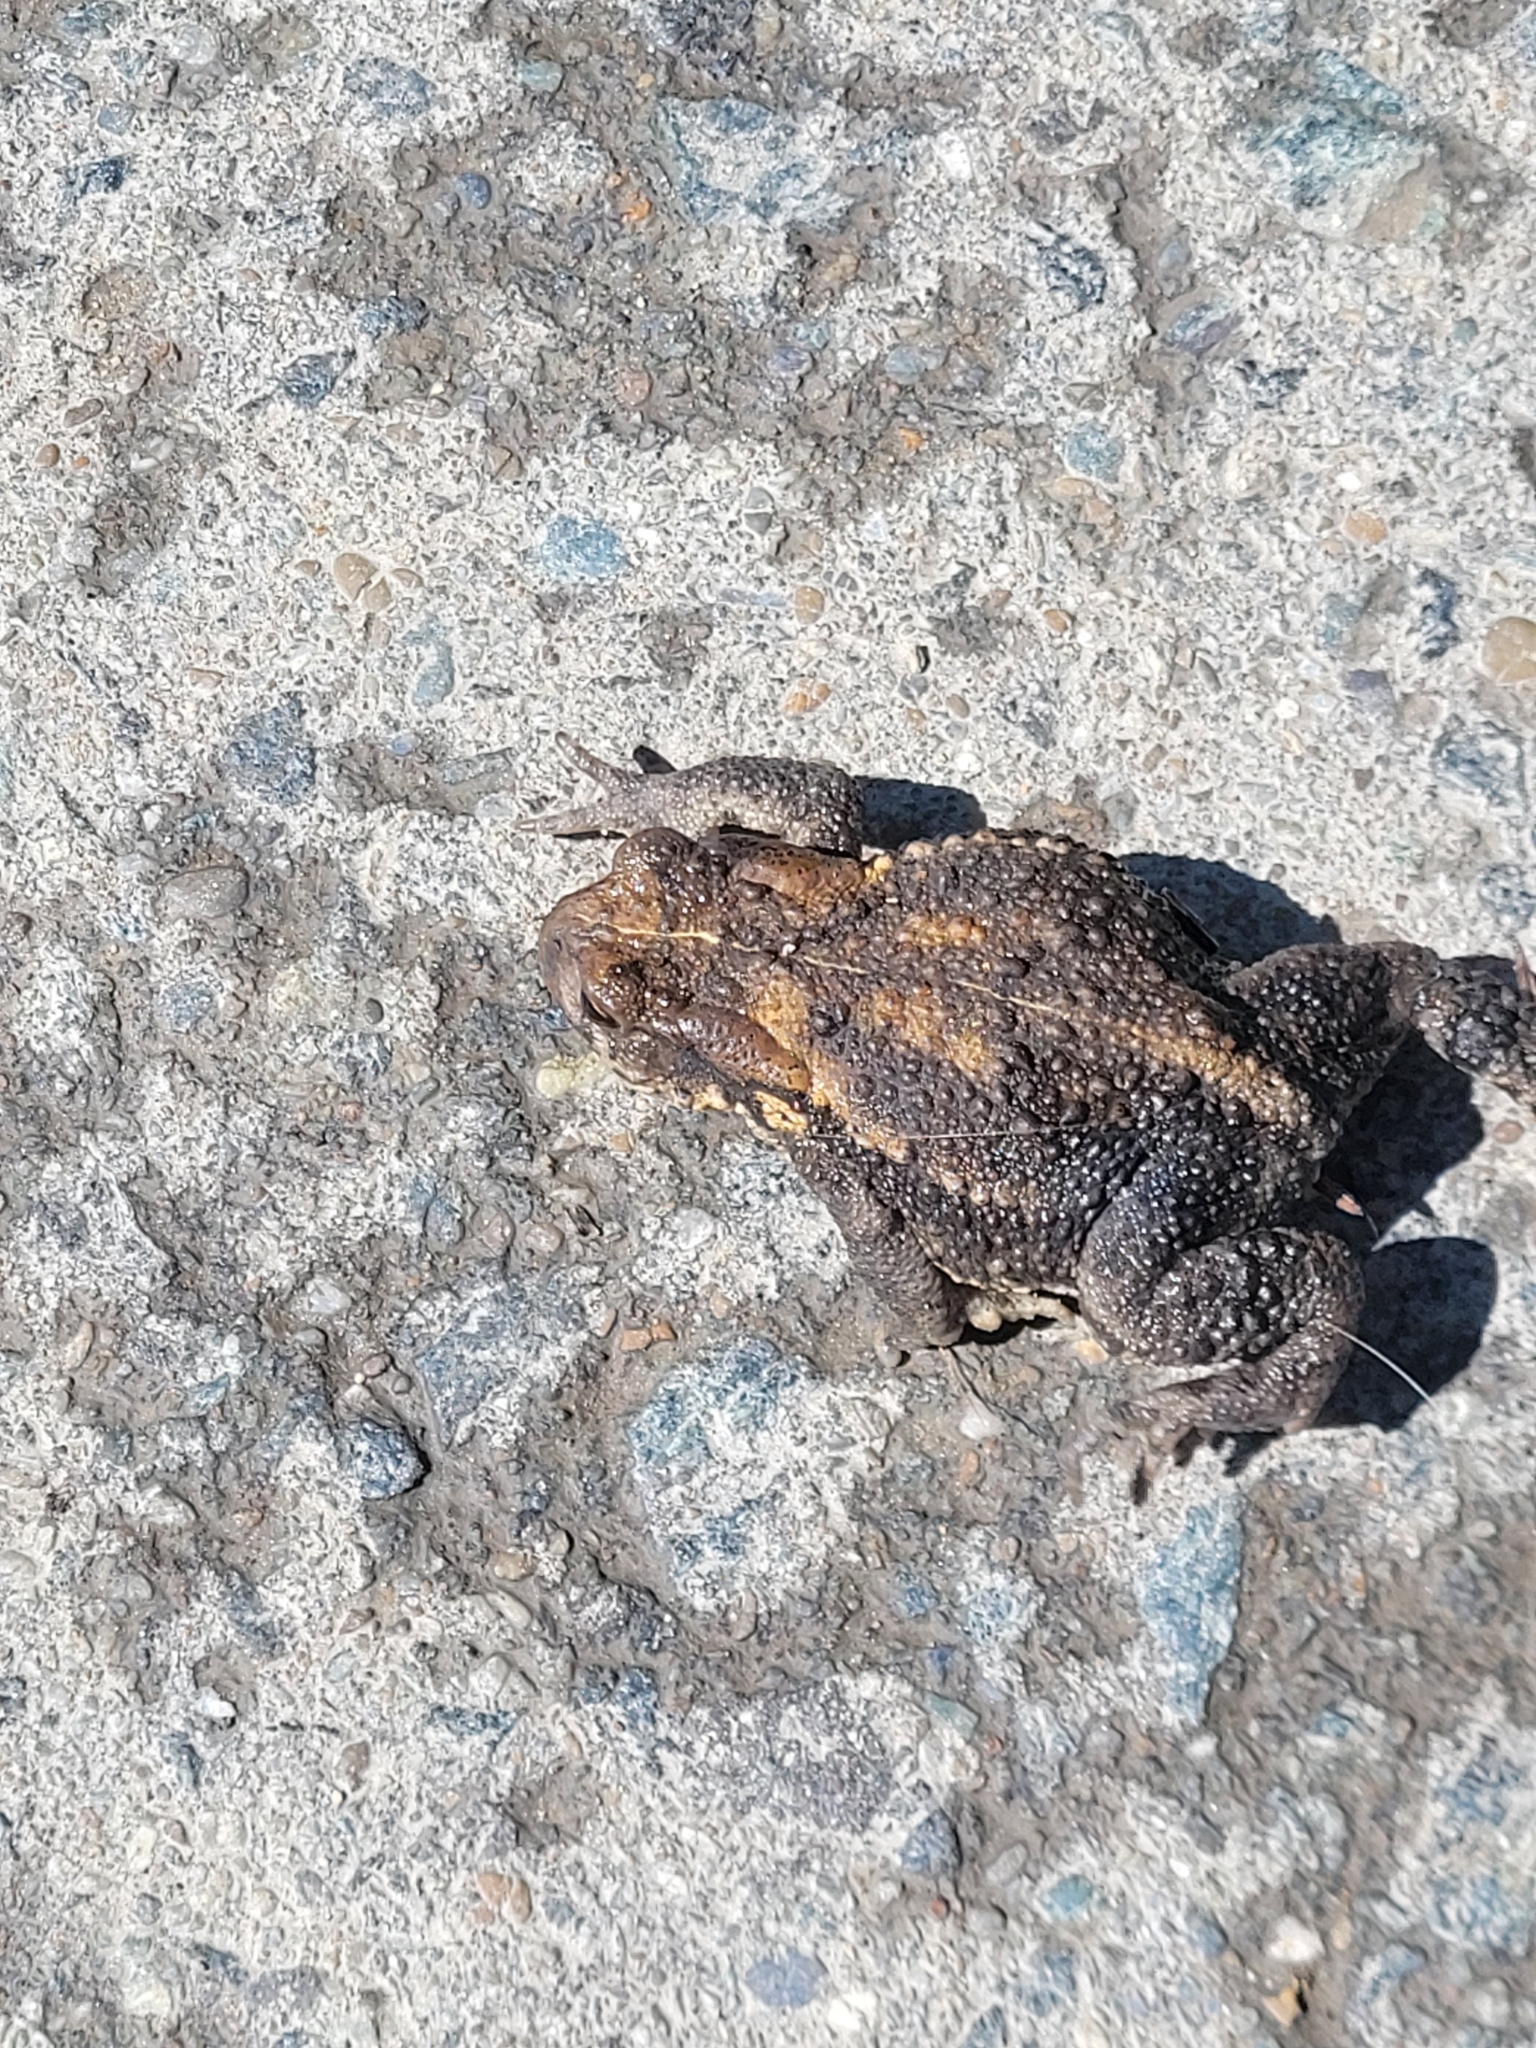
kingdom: Animalia
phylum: Chordata
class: Amphibia
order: Anura
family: Bufonidae
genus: Bufo
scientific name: Bufo gargarizans
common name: Asiatic toad
